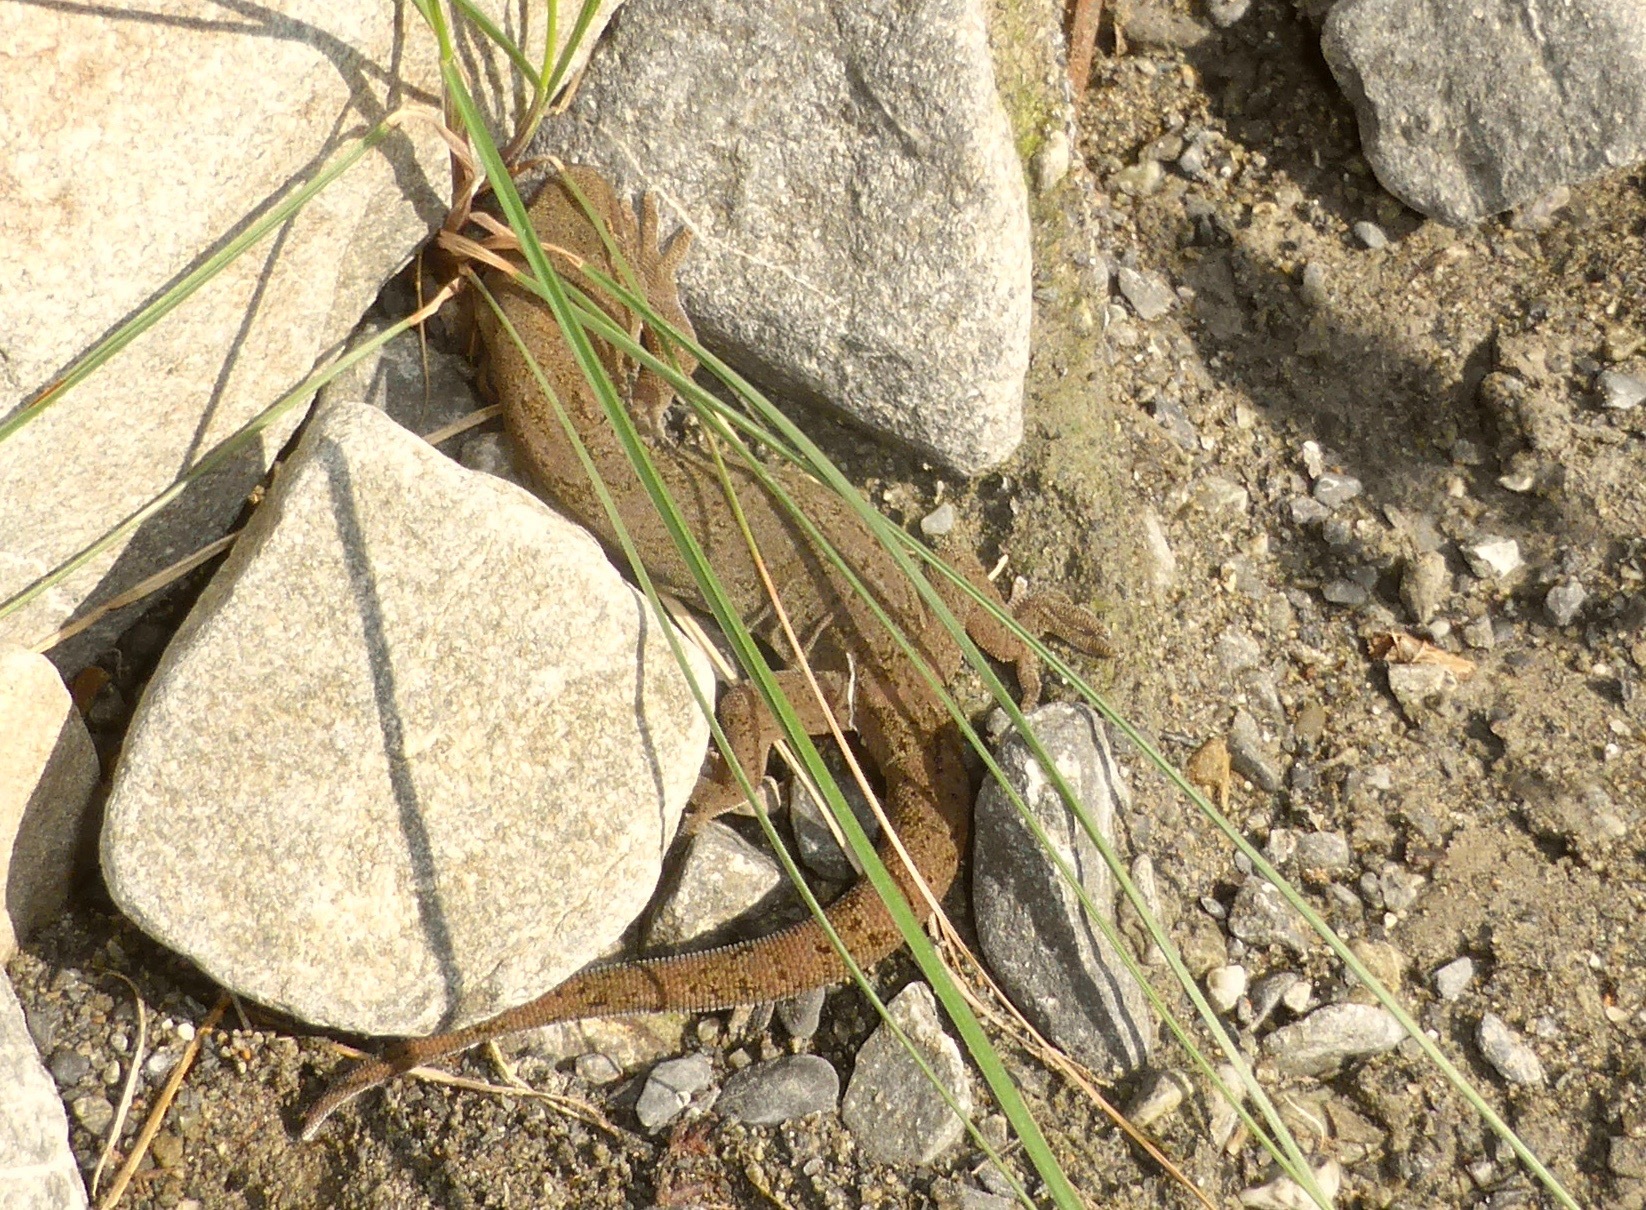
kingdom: Animalia
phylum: Chordata
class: Squamata
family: Diplodactylidae
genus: Woodworthia
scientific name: Woodworthia
